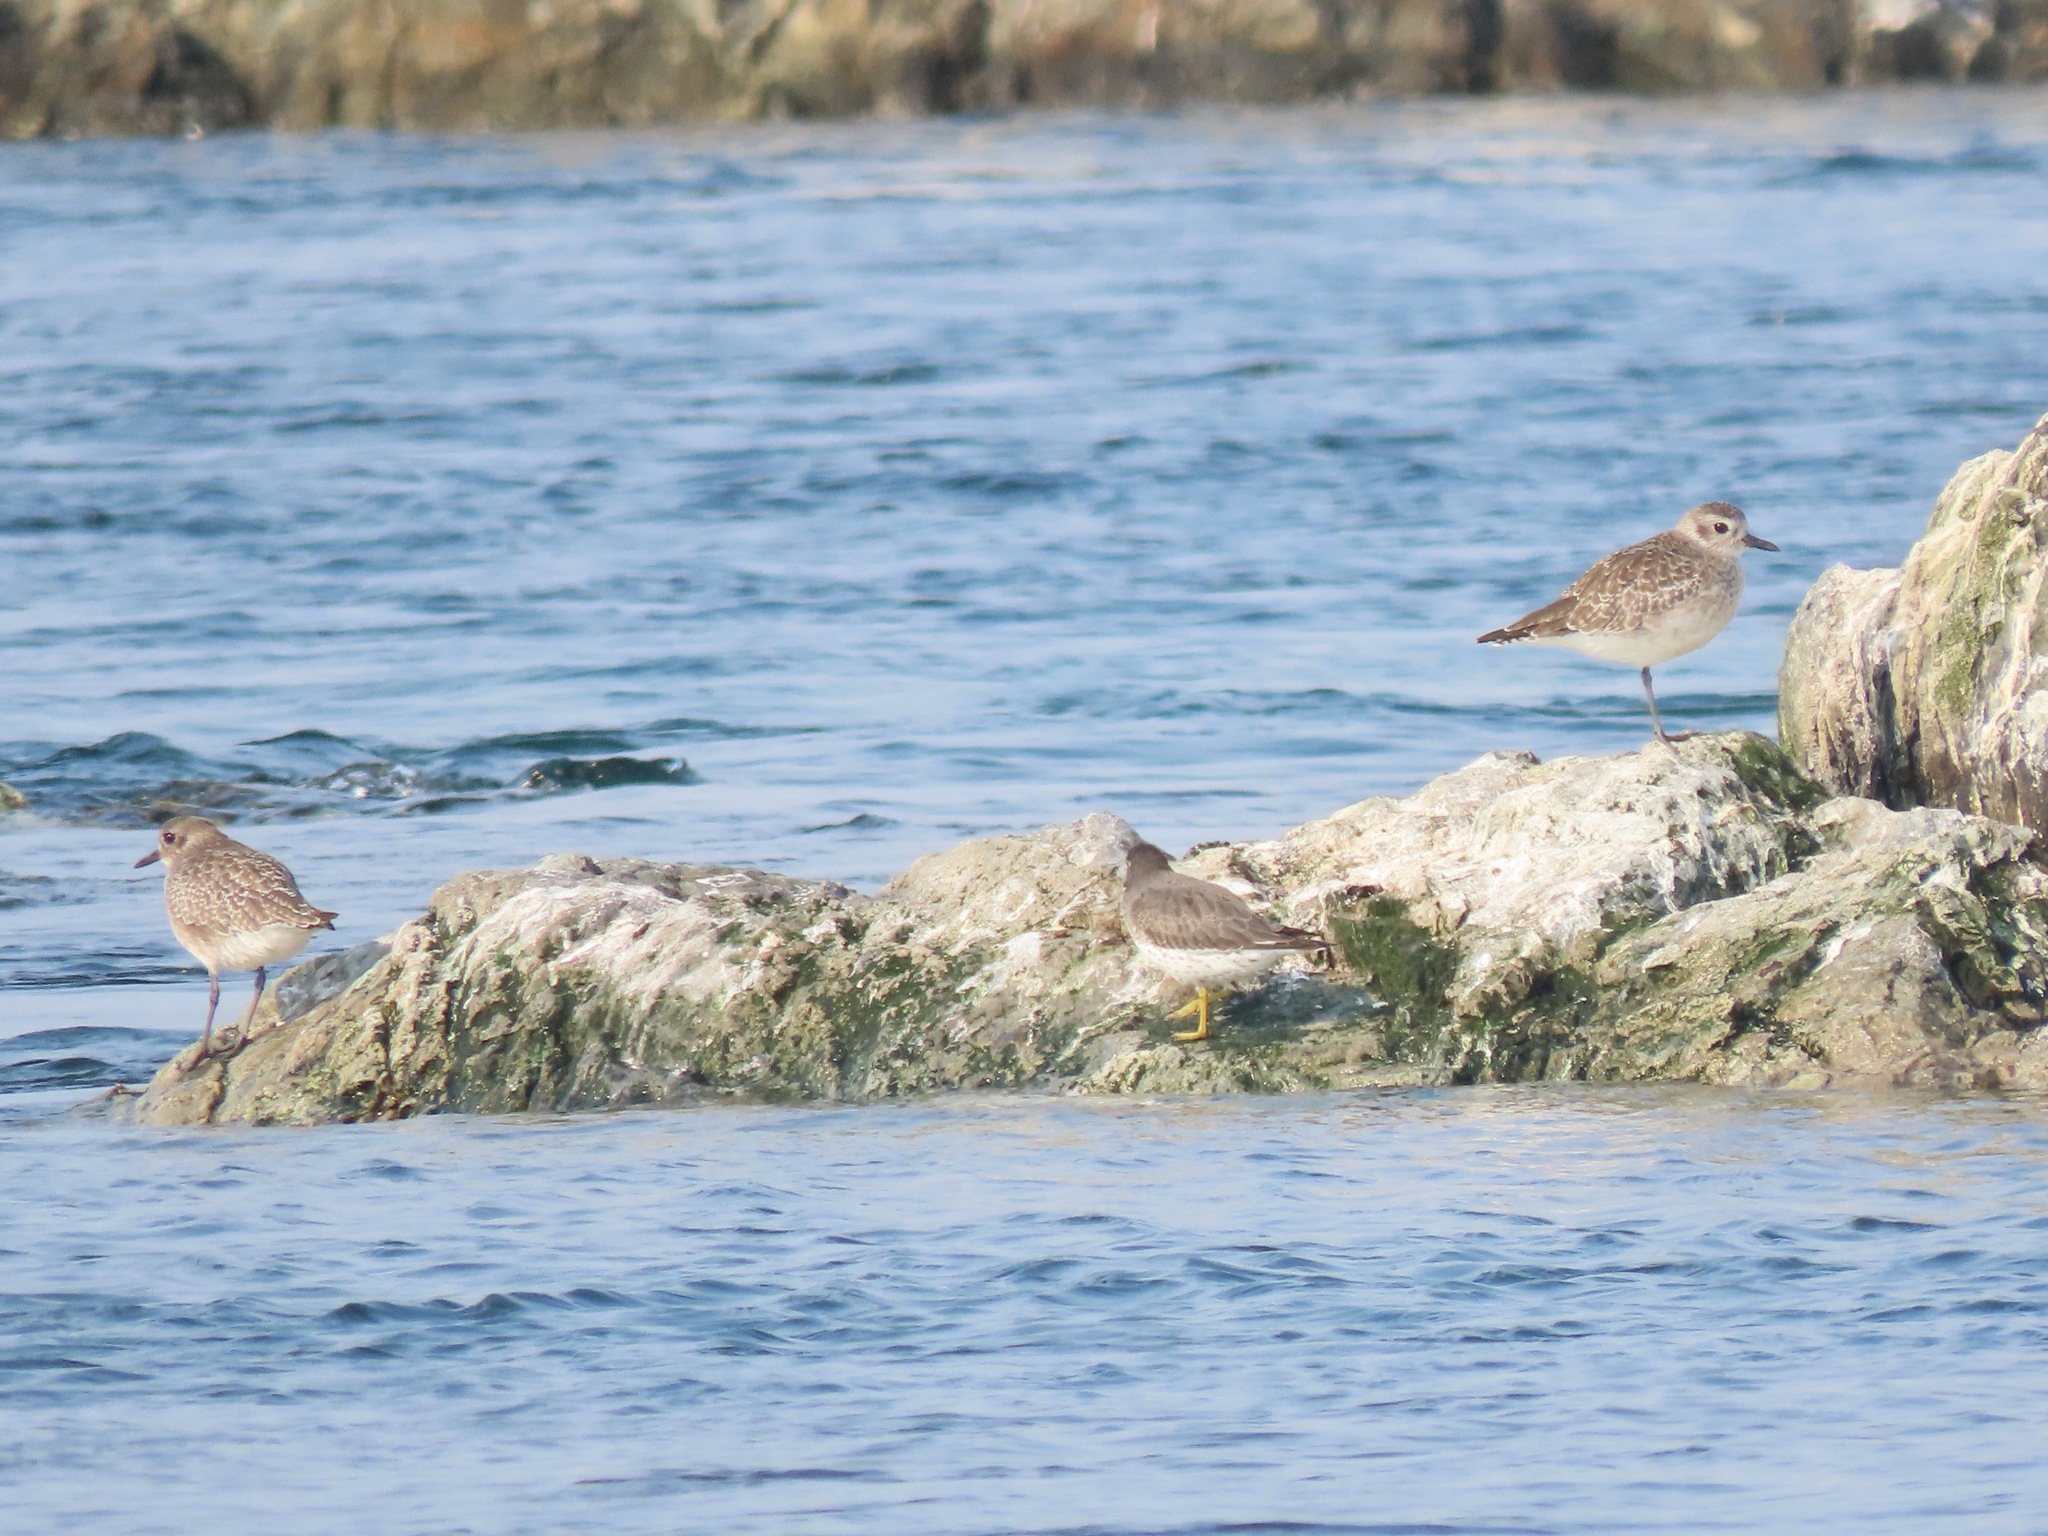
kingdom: Animalia
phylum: Chordata
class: Aves
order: Charadriiformes
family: Charadriidae
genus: Pluvialis
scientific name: Pluvialis squatarola
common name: Grey plover
